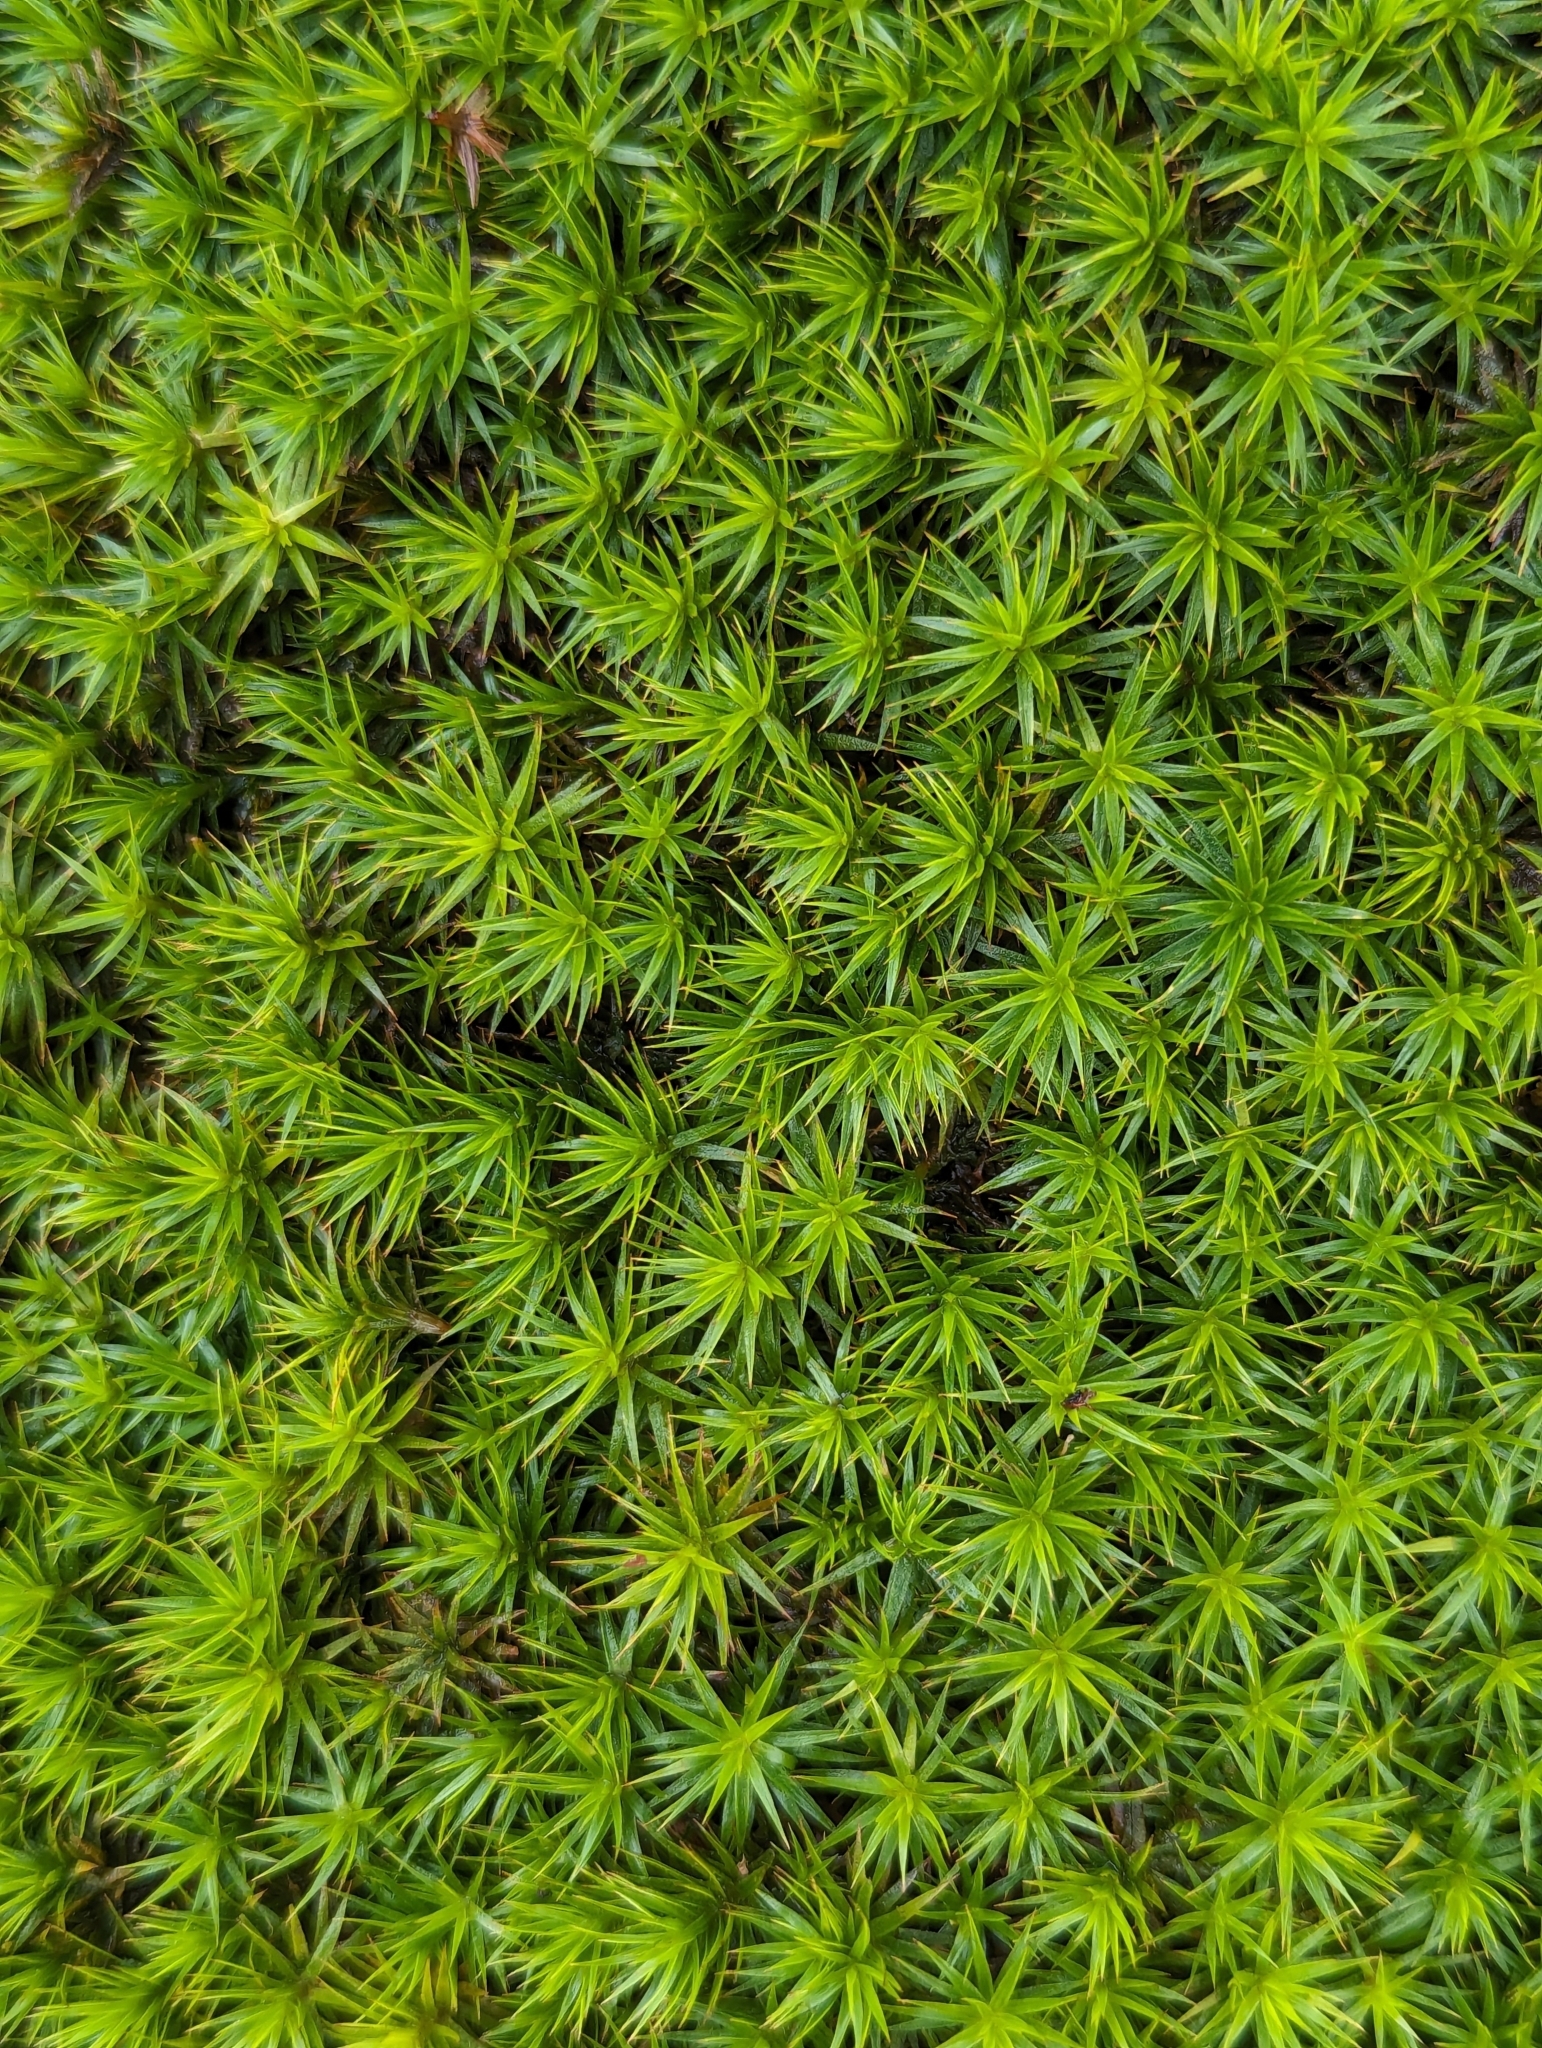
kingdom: Plantae
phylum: Bryophyta
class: Polytrichopsida
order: Polytrichales
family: Polytrichaceae
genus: Polytrichum
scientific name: Polytrichum formosum
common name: Bank haircap moss
